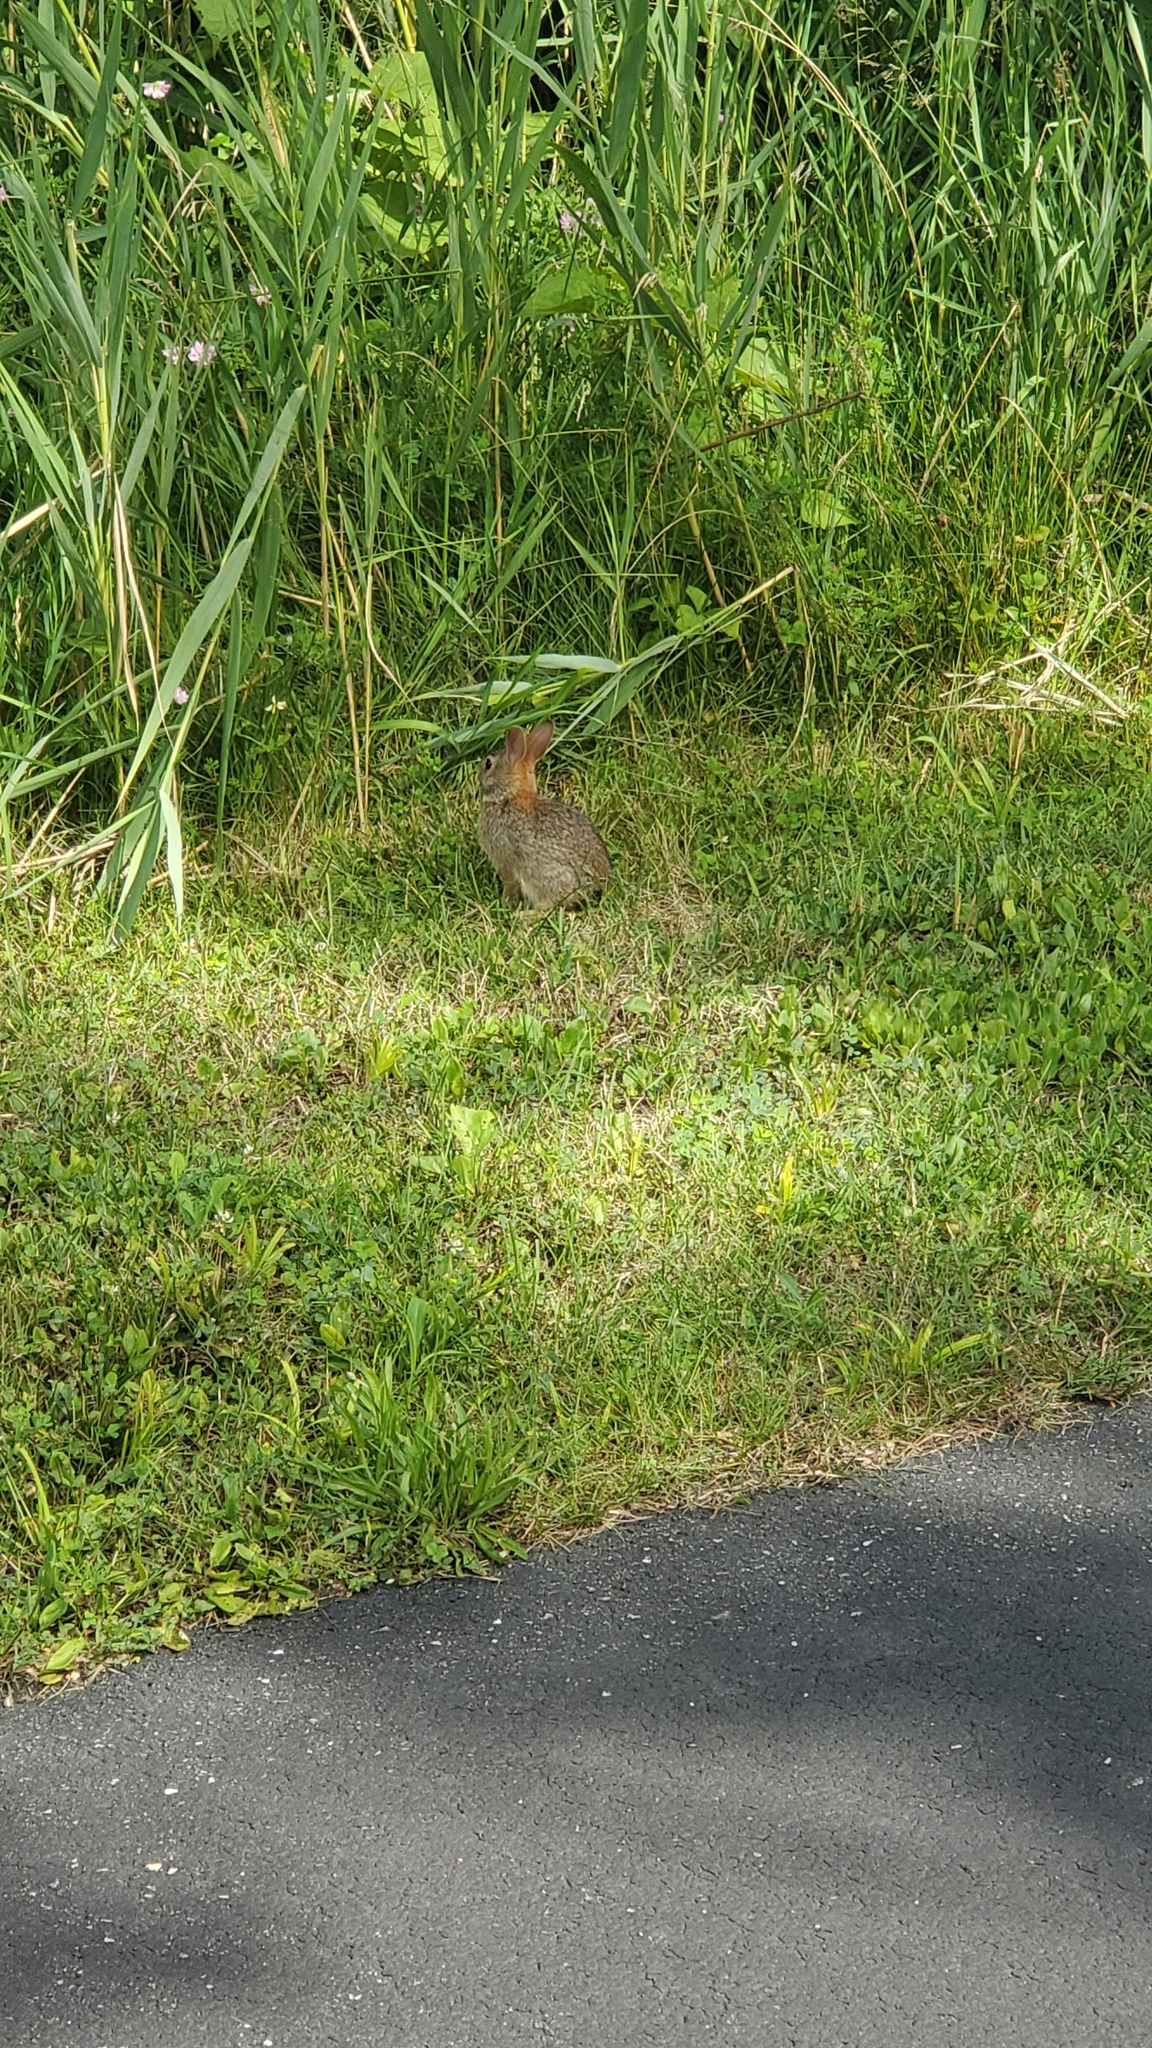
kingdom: Animalia
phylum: Chordata
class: Mammalia
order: Lagomorpha
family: Leporidae
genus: Sylvilagus
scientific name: Sylvilagus floridanus
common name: Eastern cottontail
